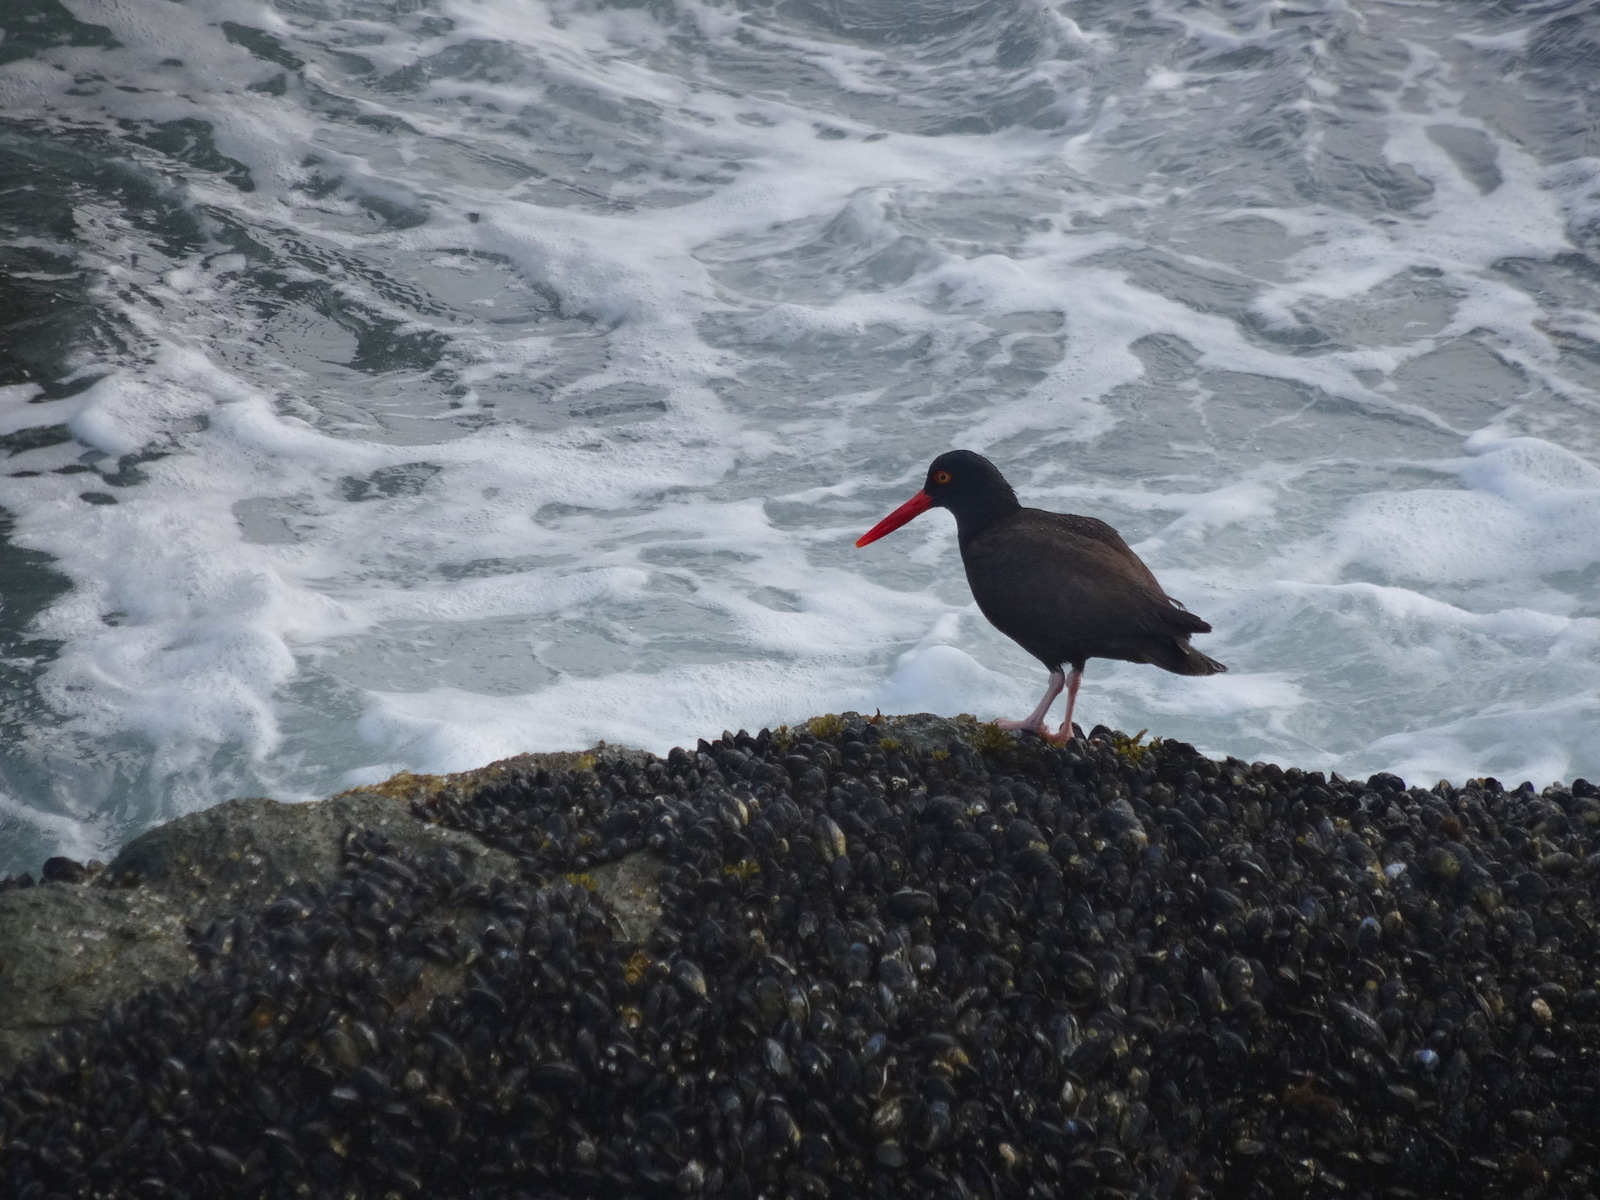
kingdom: Animalia
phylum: Chordata
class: Aves
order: Charadriiformes
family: Haematopodidae
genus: Haematopus
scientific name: Haematopus bachmani
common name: Black oystercatcher
